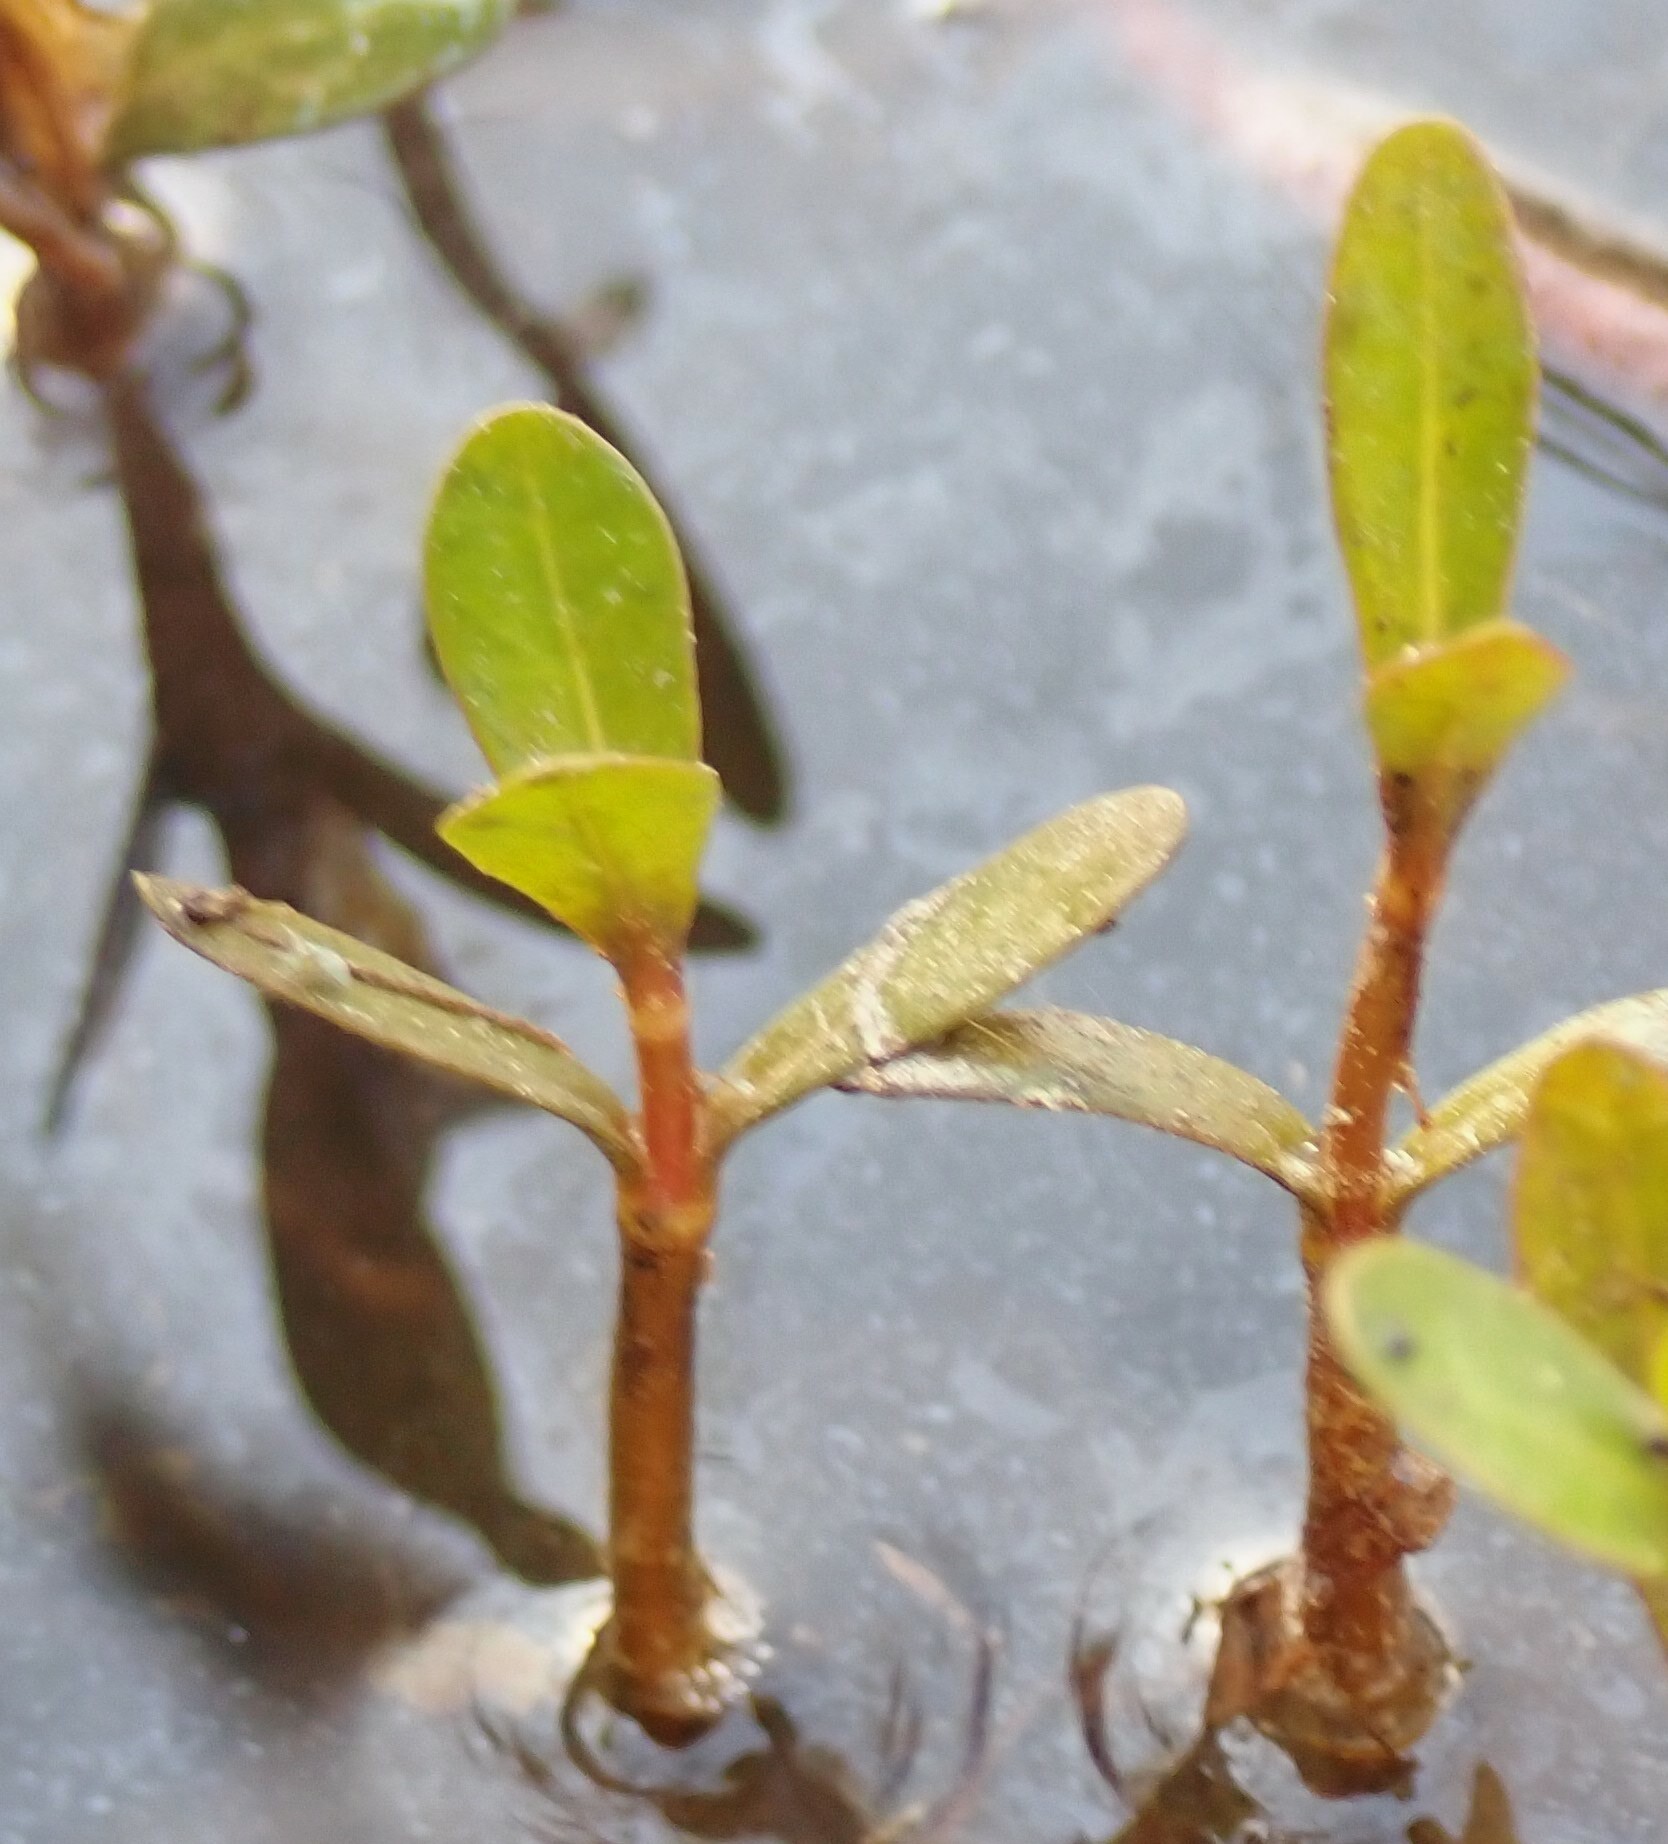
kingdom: Plantae
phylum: Tracheophyta
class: Magnoliopsida
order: Caryophyllales
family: Amaranthaceae
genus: Alternanthera
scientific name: Alternanthera philoxeroides
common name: Alligatorweed
